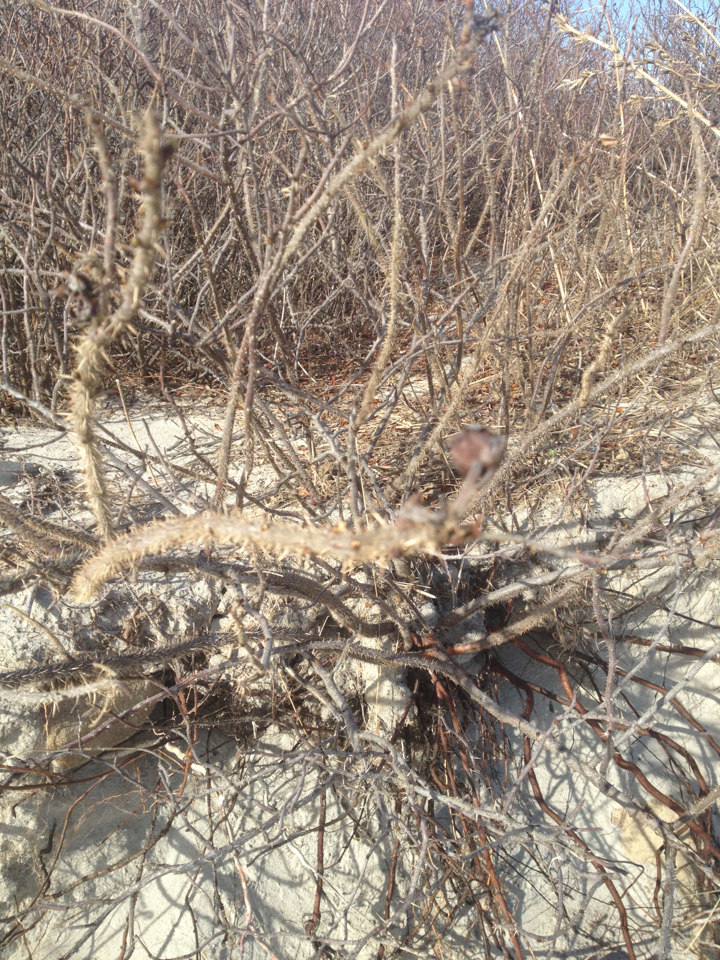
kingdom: Plantae
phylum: Tracheophyta
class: Magnoliopsida
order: Rosales
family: Rosaceae
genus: Rosa
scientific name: Rosa rugosa
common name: Japanese rose
